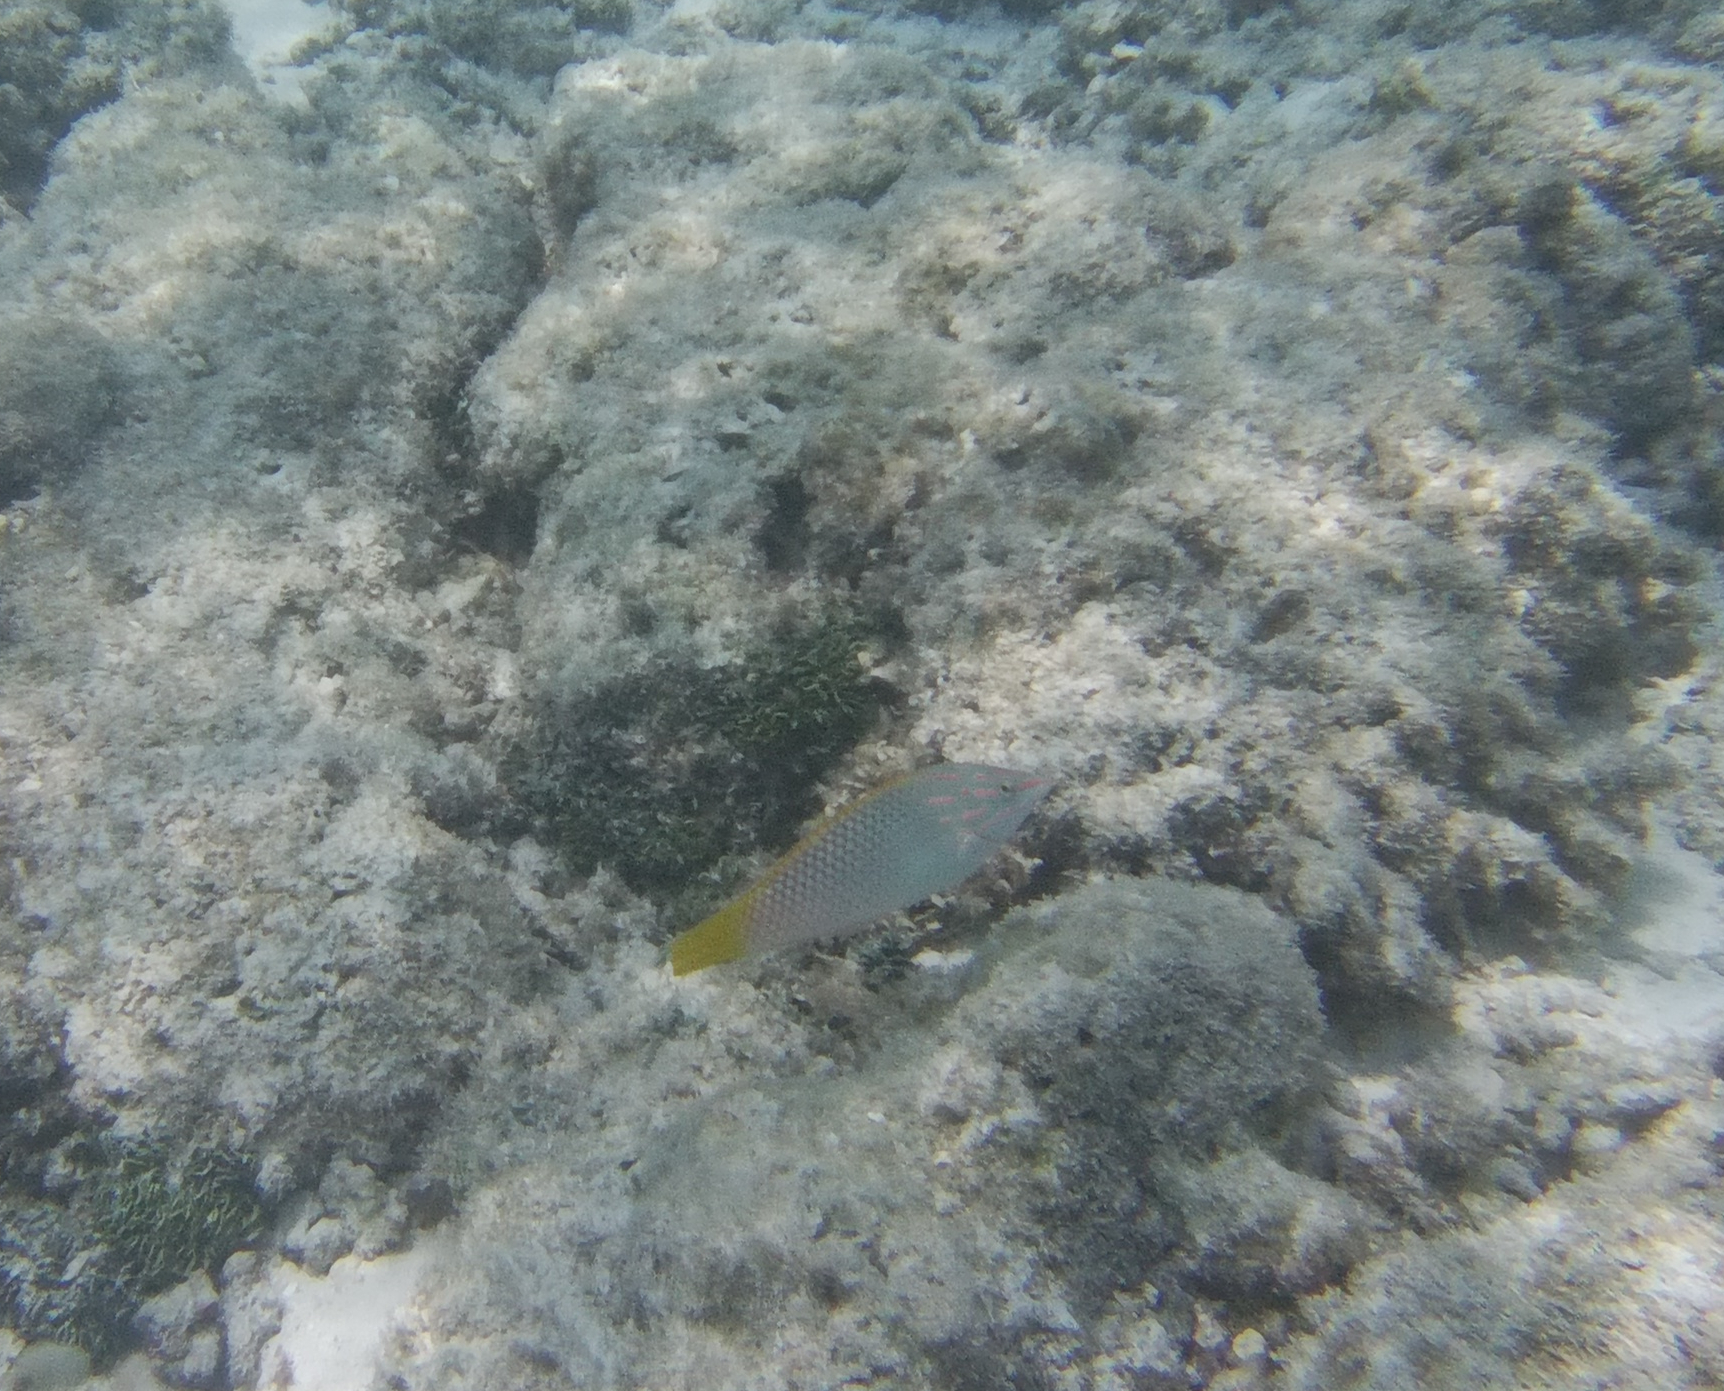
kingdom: Animalia
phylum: Chordata
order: Perciformes
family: Labridae
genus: Halichoeres
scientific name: Halichoeres hortulanus
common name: Checkerboard wrasse
